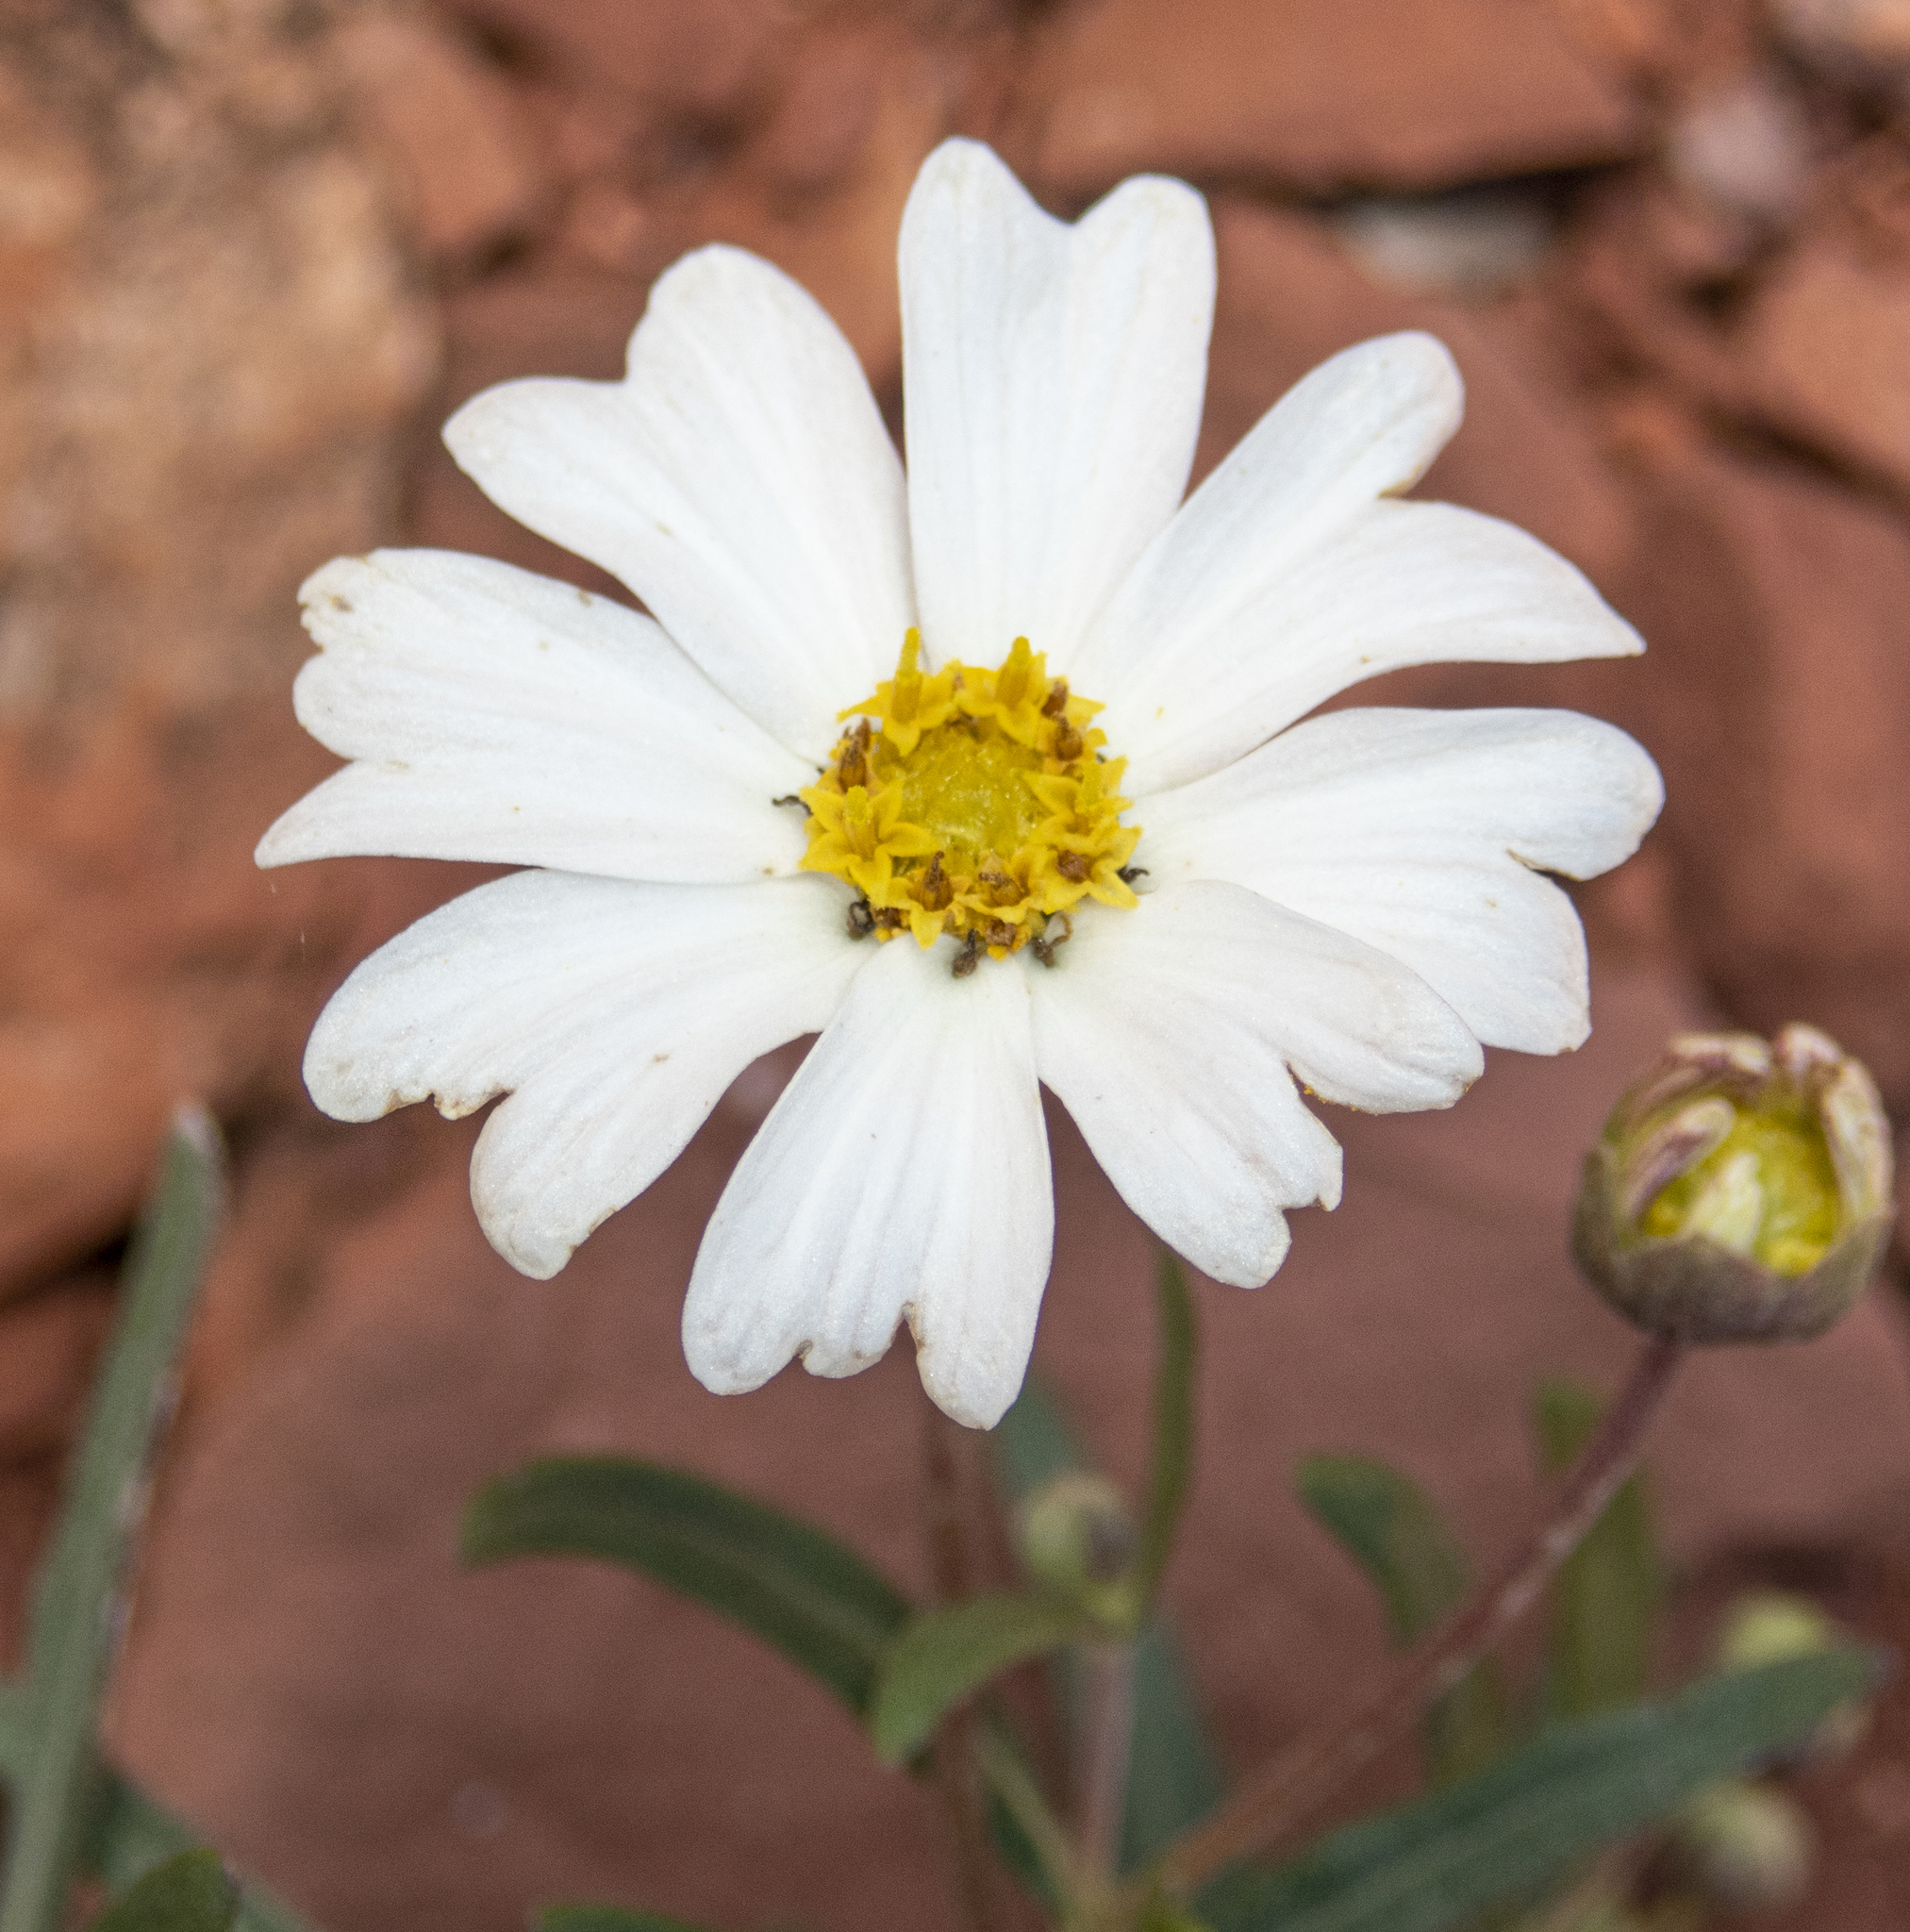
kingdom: Plantae
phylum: Tracheophyta
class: Magnoliopsida
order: Asterales
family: Asteraceae
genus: Melampodium
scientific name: Melampodium leucanthum
